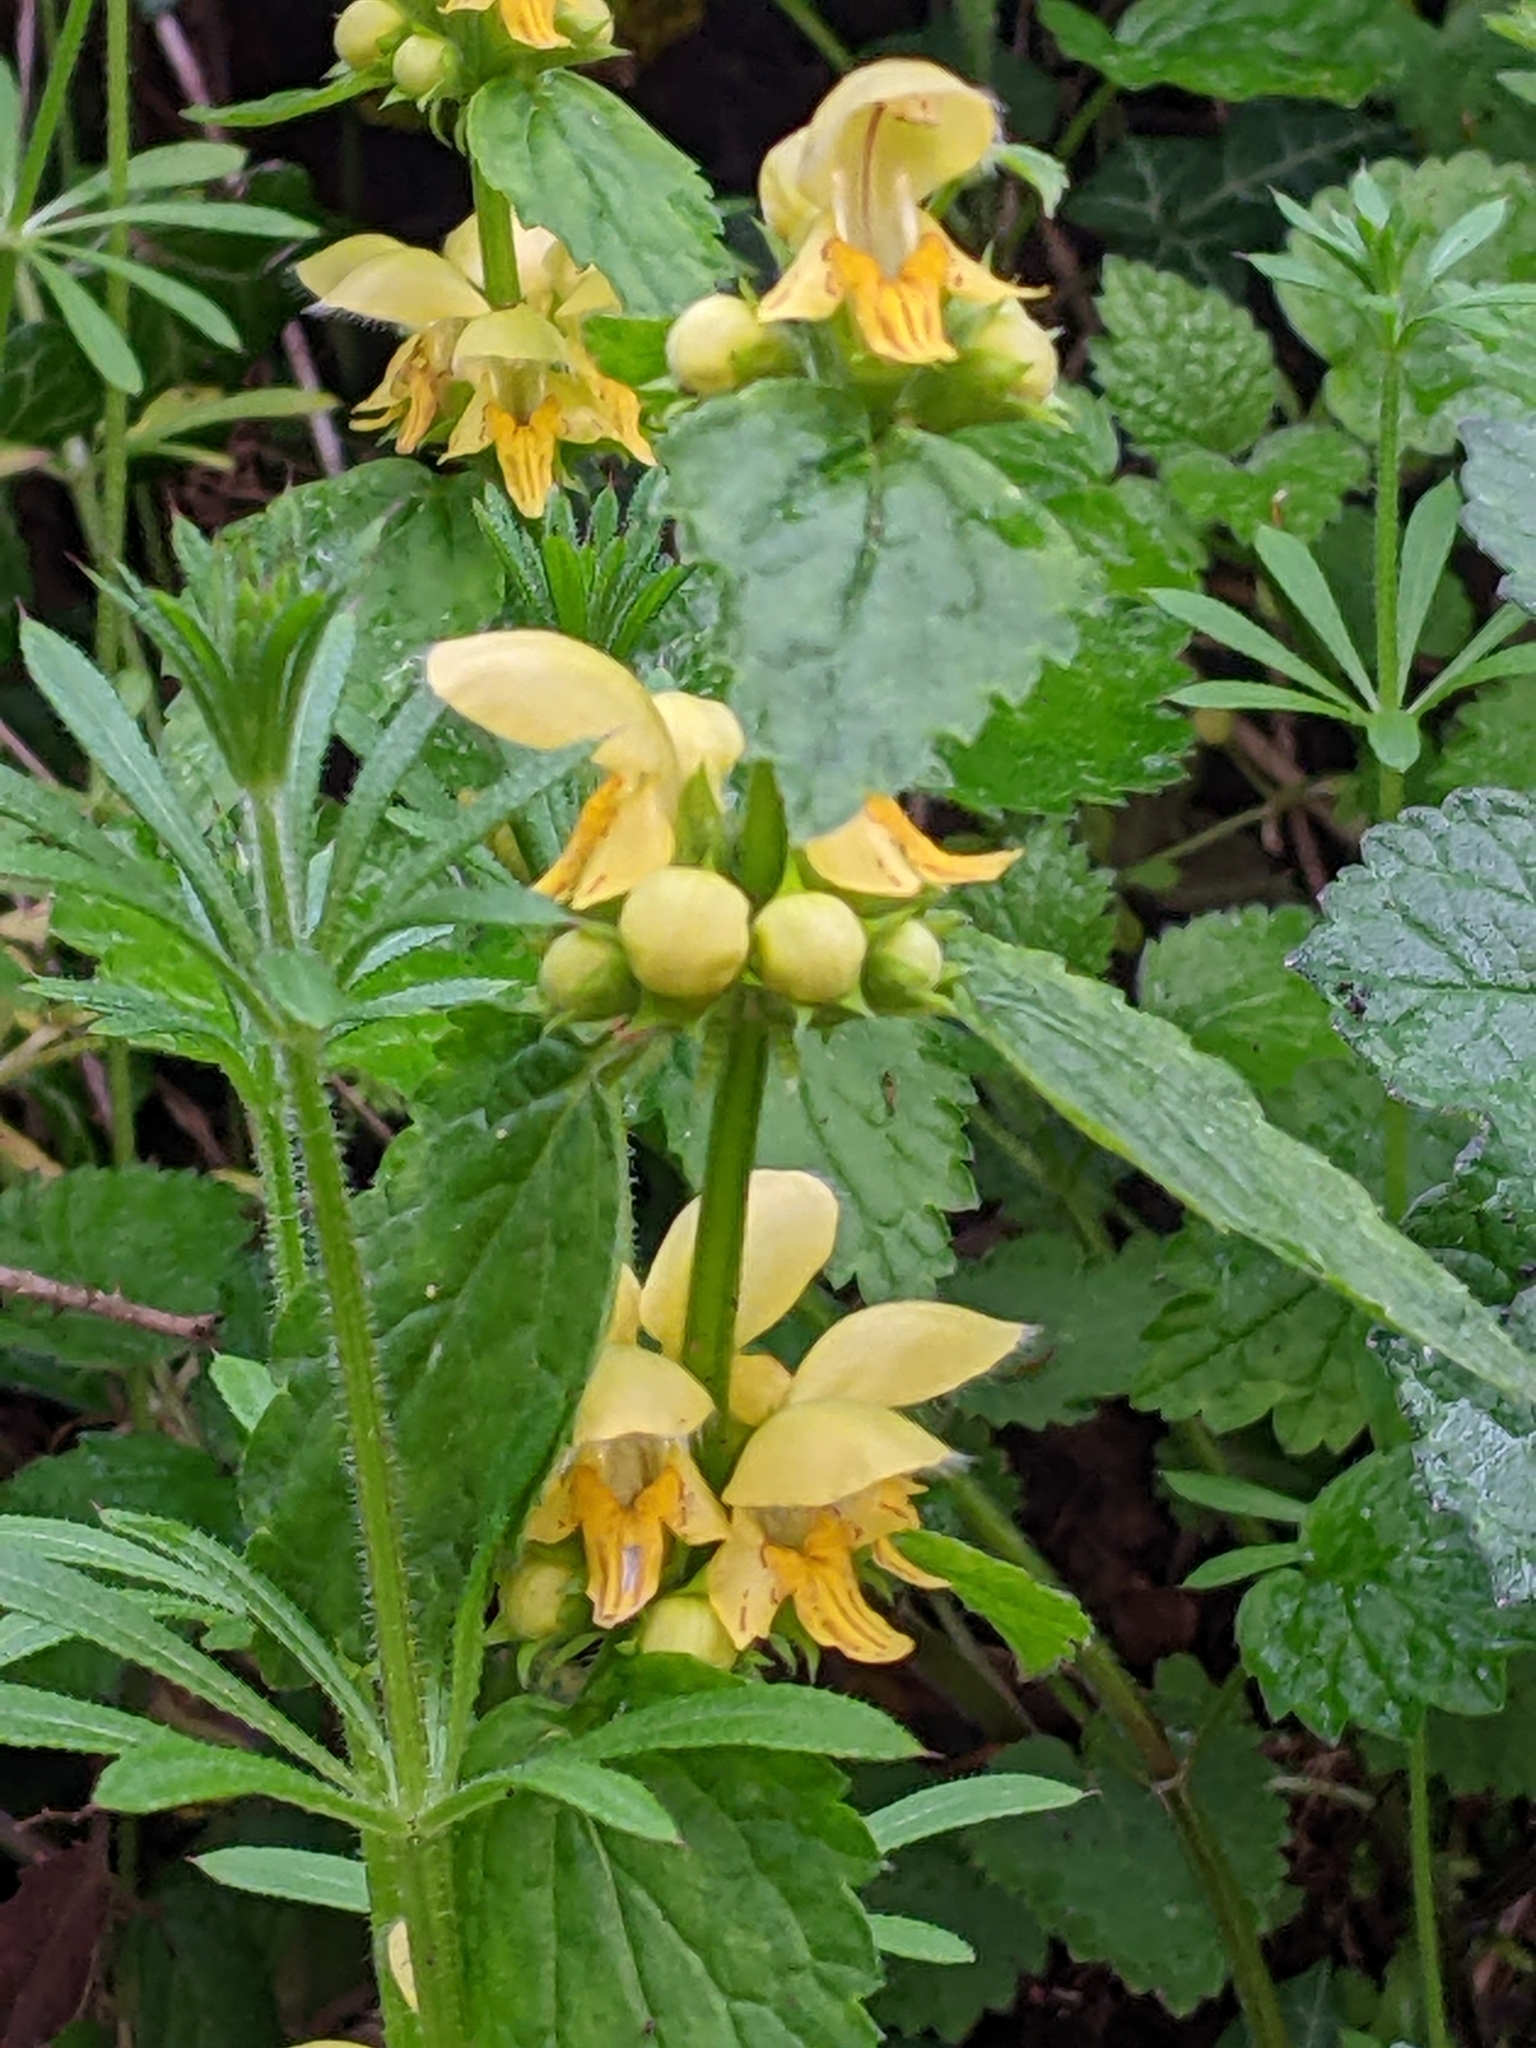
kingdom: Plantae
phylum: Tracheophyta
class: Magnoliopsida
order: Lamiales
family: Lamiaceae
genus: Lamium
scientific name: Lamium galeobdolon
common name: Yellow archangel
